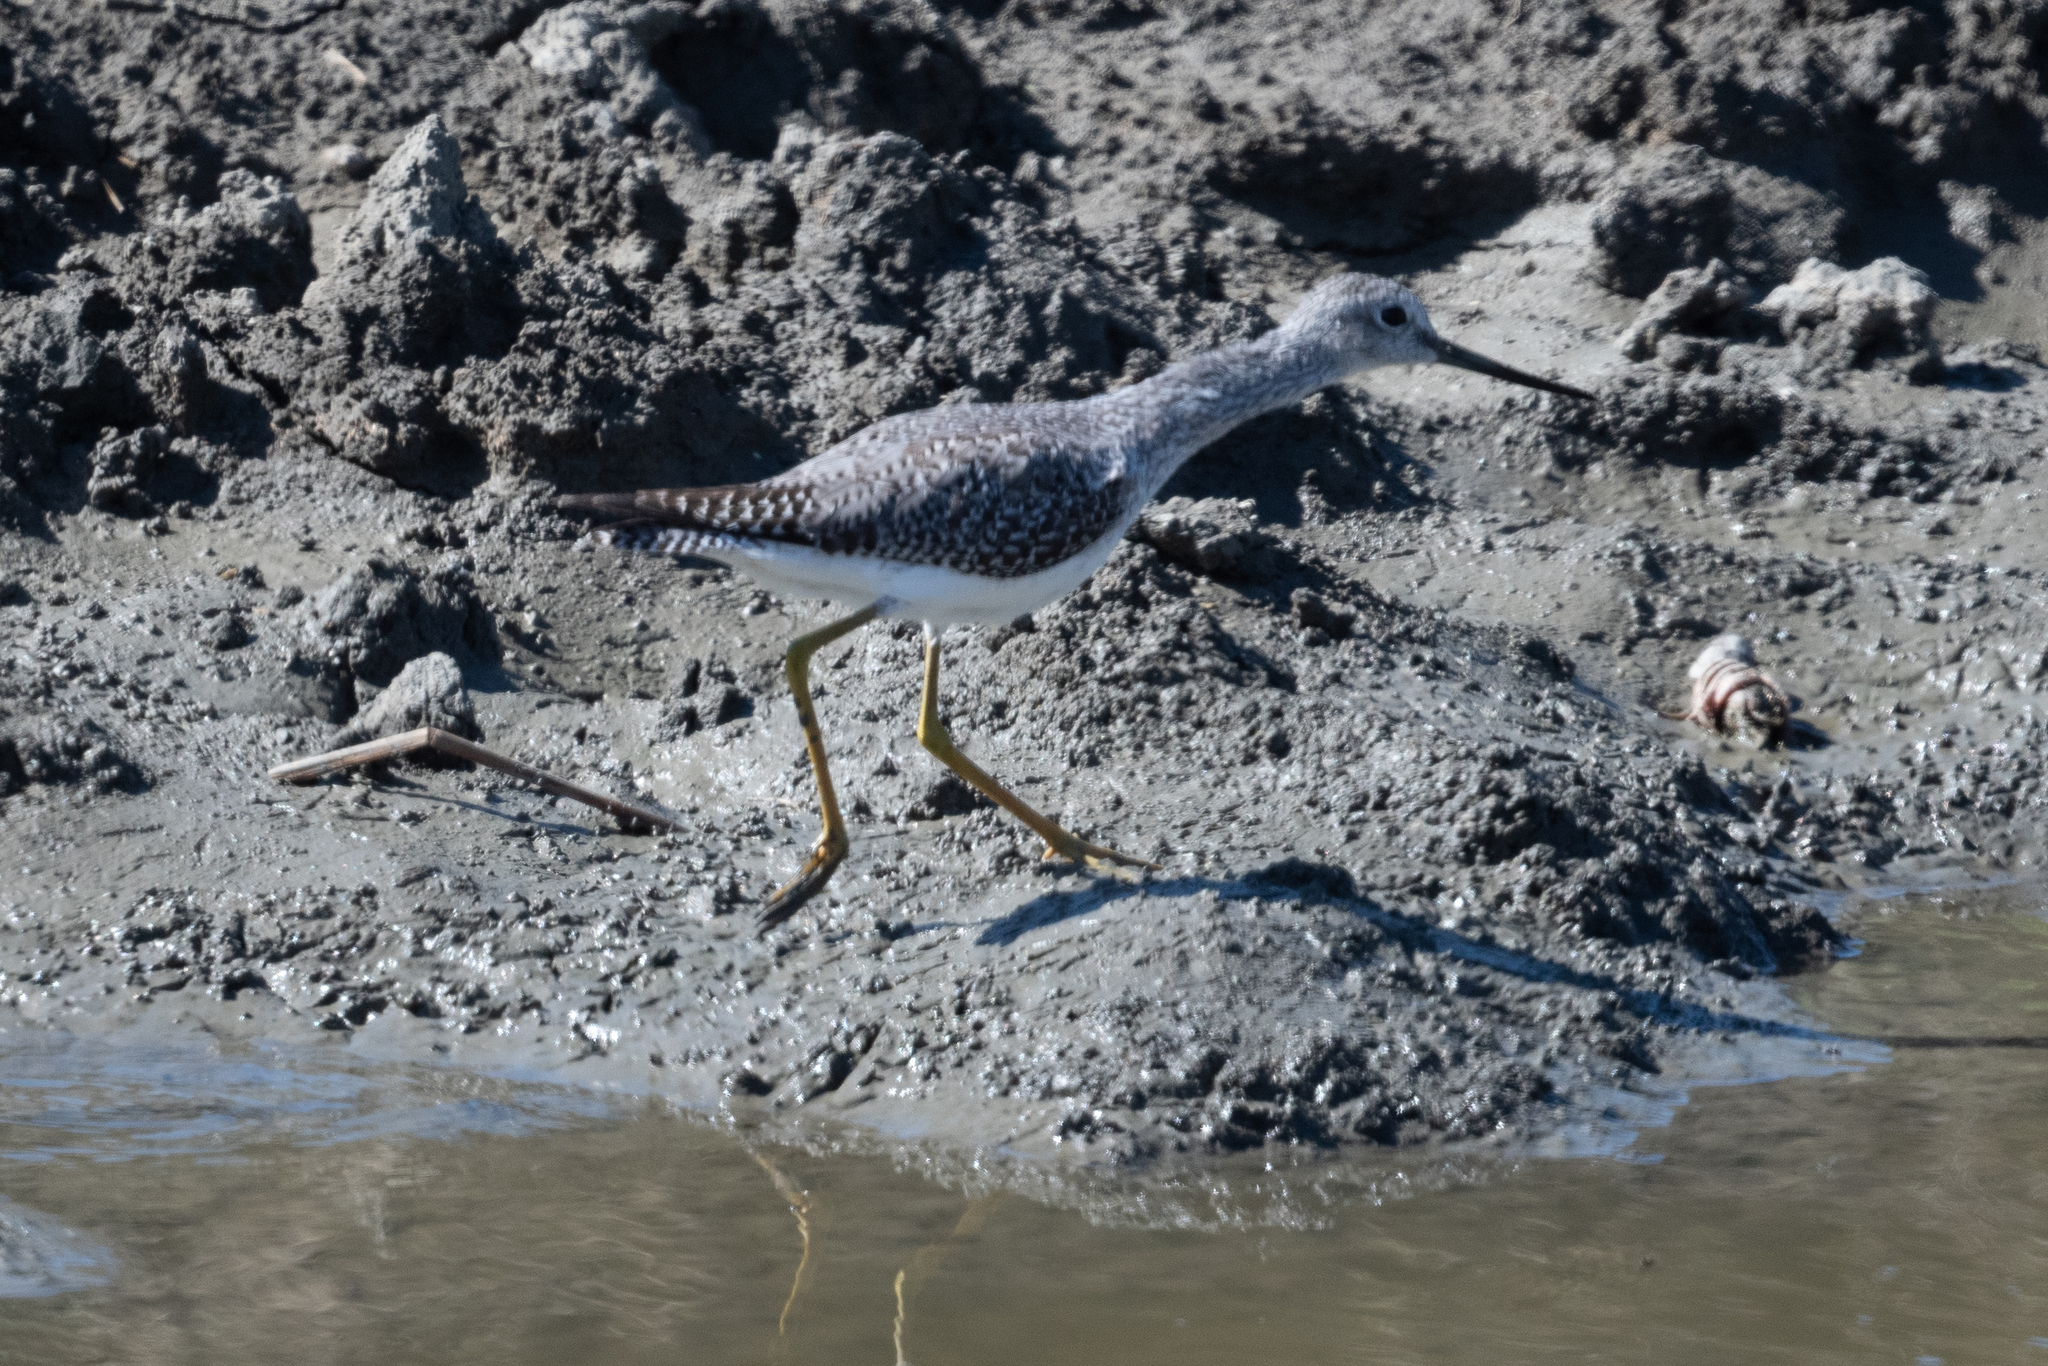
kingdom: Animalia
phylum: Chordata
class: Aves
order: Charadriiformes
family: Scolopacidae
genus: Tringa
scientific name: Tringa melanoleuca
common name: Greater yellowlegs
